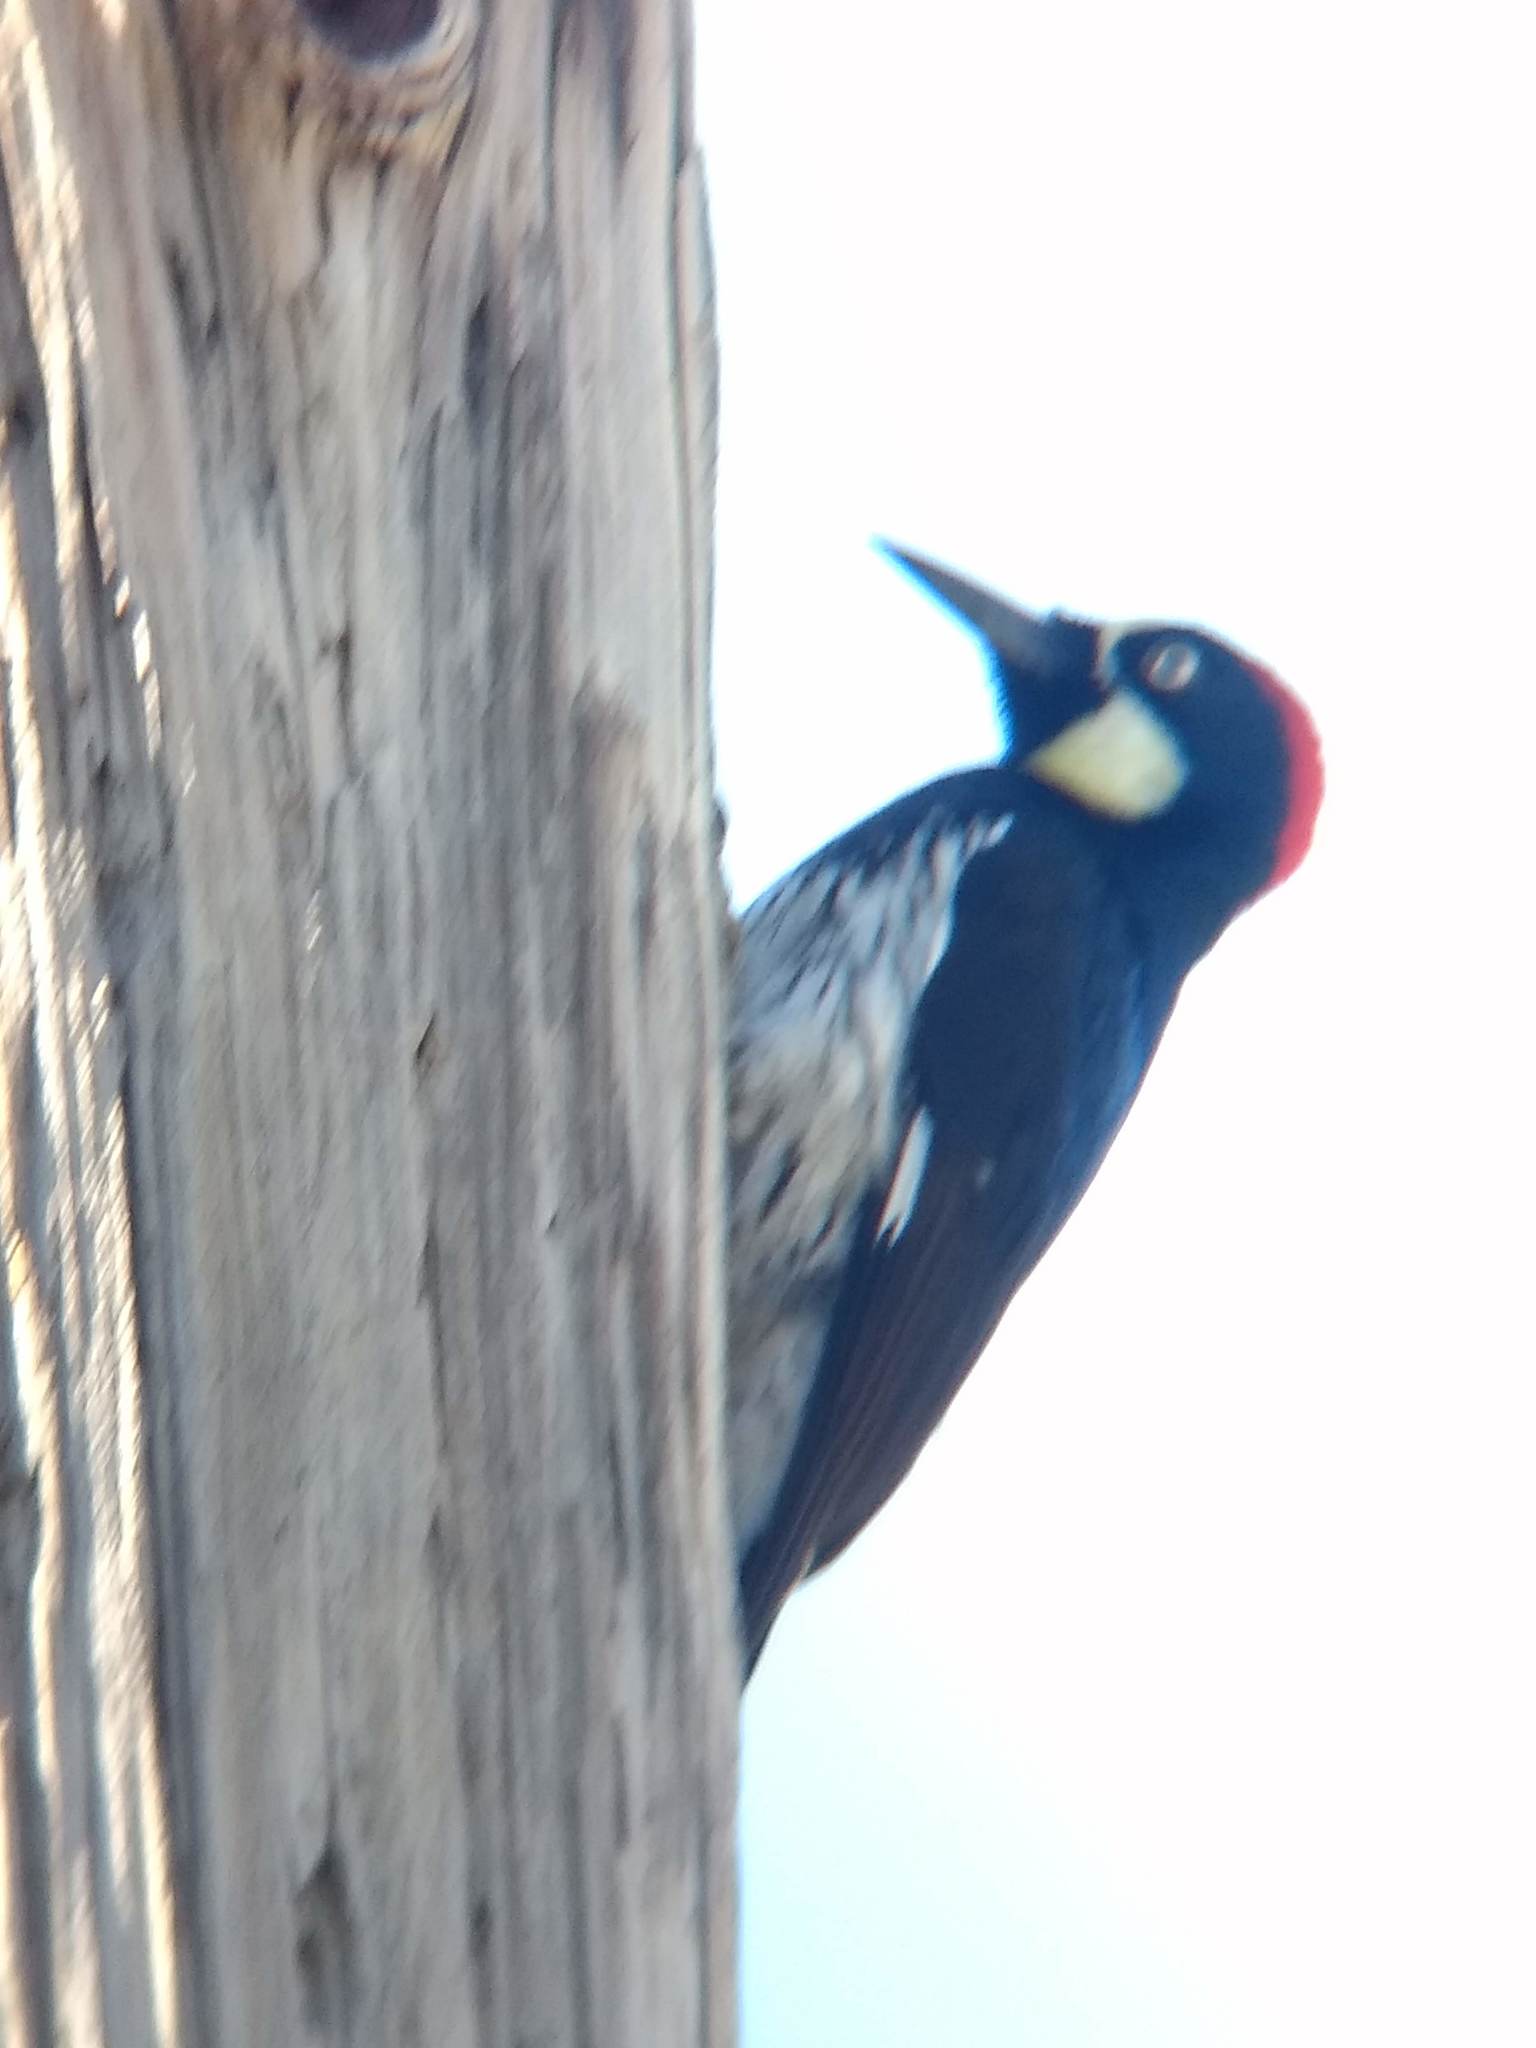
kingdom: Animalia
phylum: Chordata
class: Aves
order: Piciformes
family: Picidae
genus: Melanerpes
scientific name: Melanerpes formicivorus
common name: Acorn woodpecker
